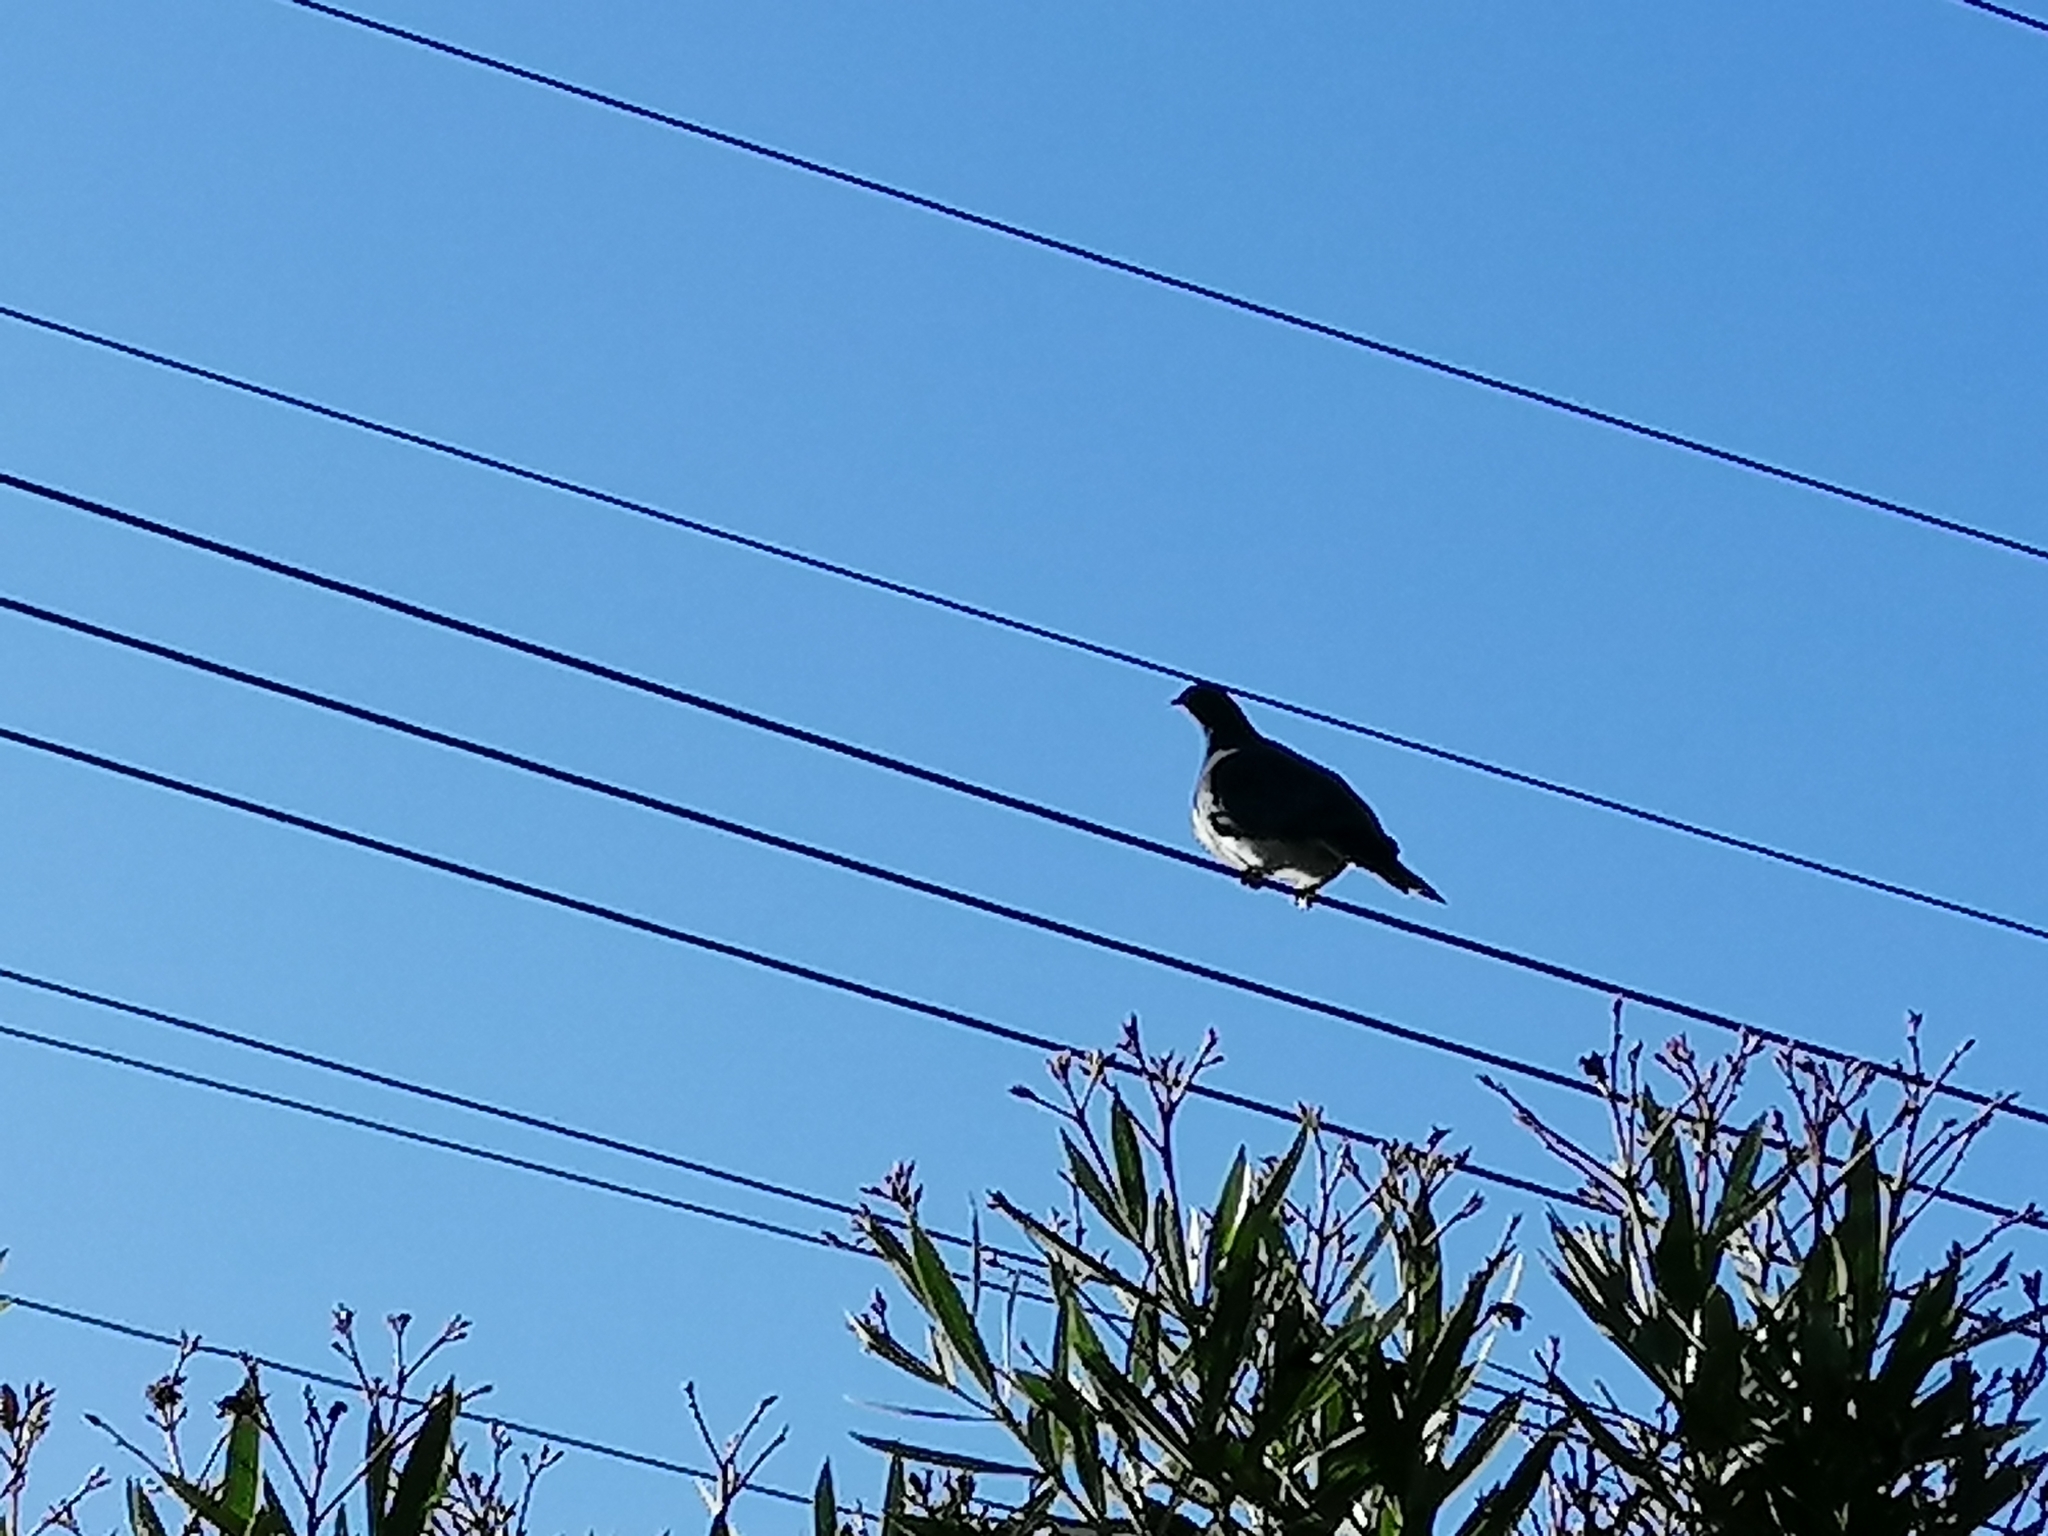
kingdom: Animalia
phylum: Chordata
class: Aves
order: Columbiformes
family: Columbidae
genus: Hemiphaga
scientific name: Hemiphaga novaeseelandiae
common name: New zealand pigeon
